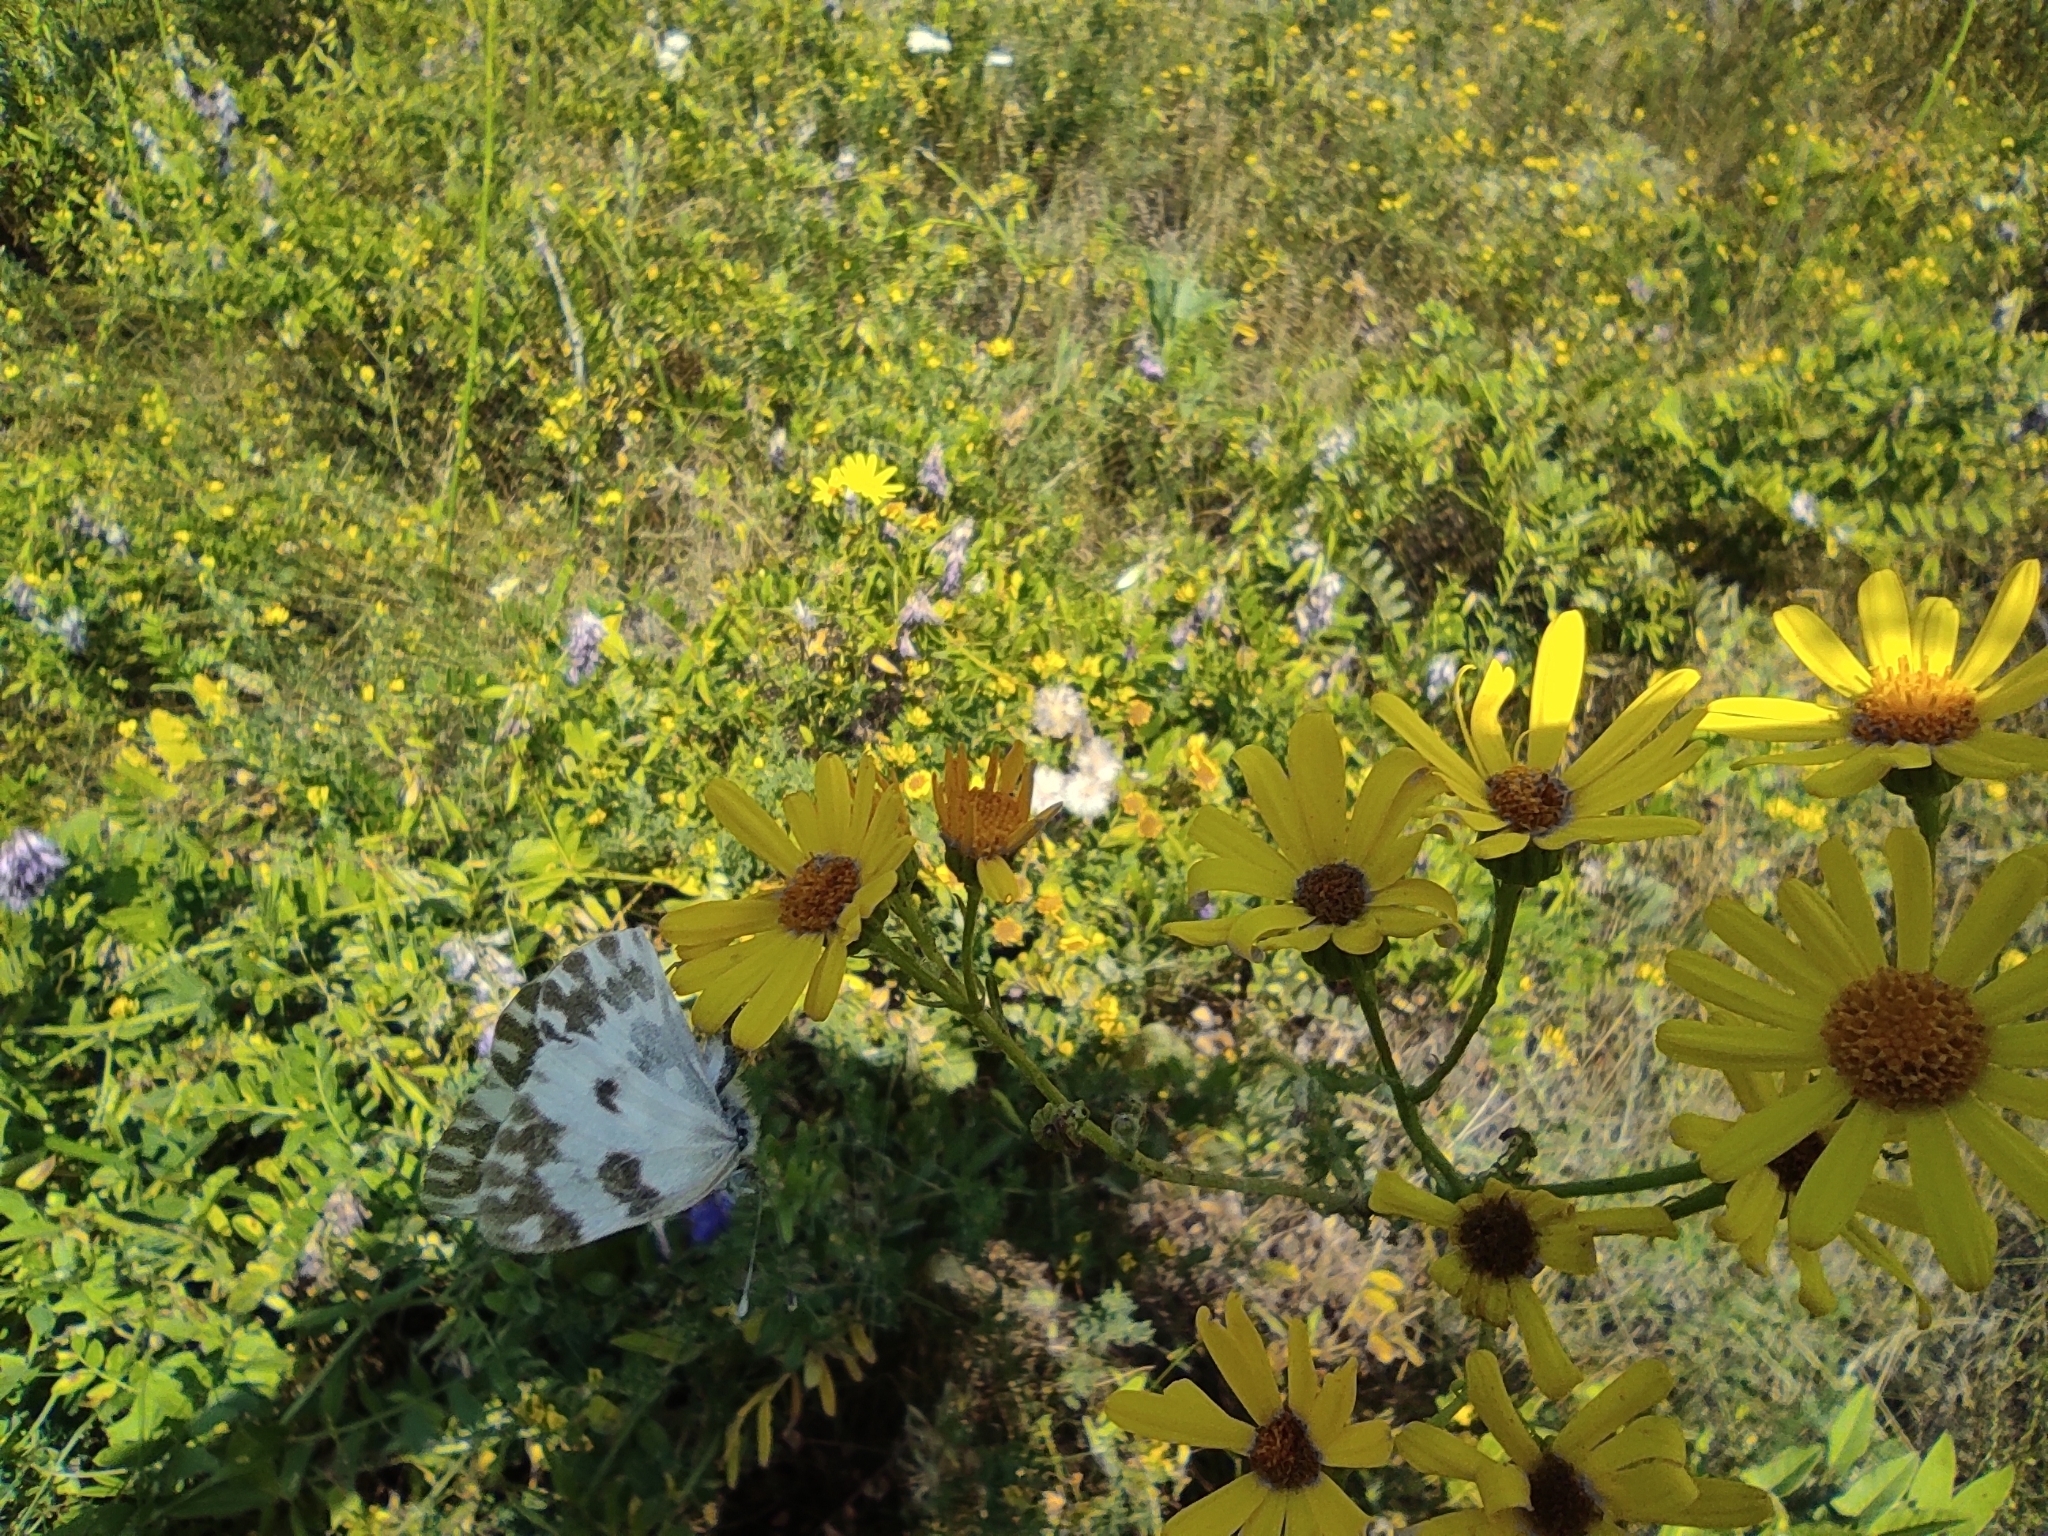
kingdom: Animalia
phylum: Arthropoda
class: Insecta
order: Lepidoptera
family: Pieridae
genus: Pontia
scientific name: Pontia edusa
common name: Eastern bath white
